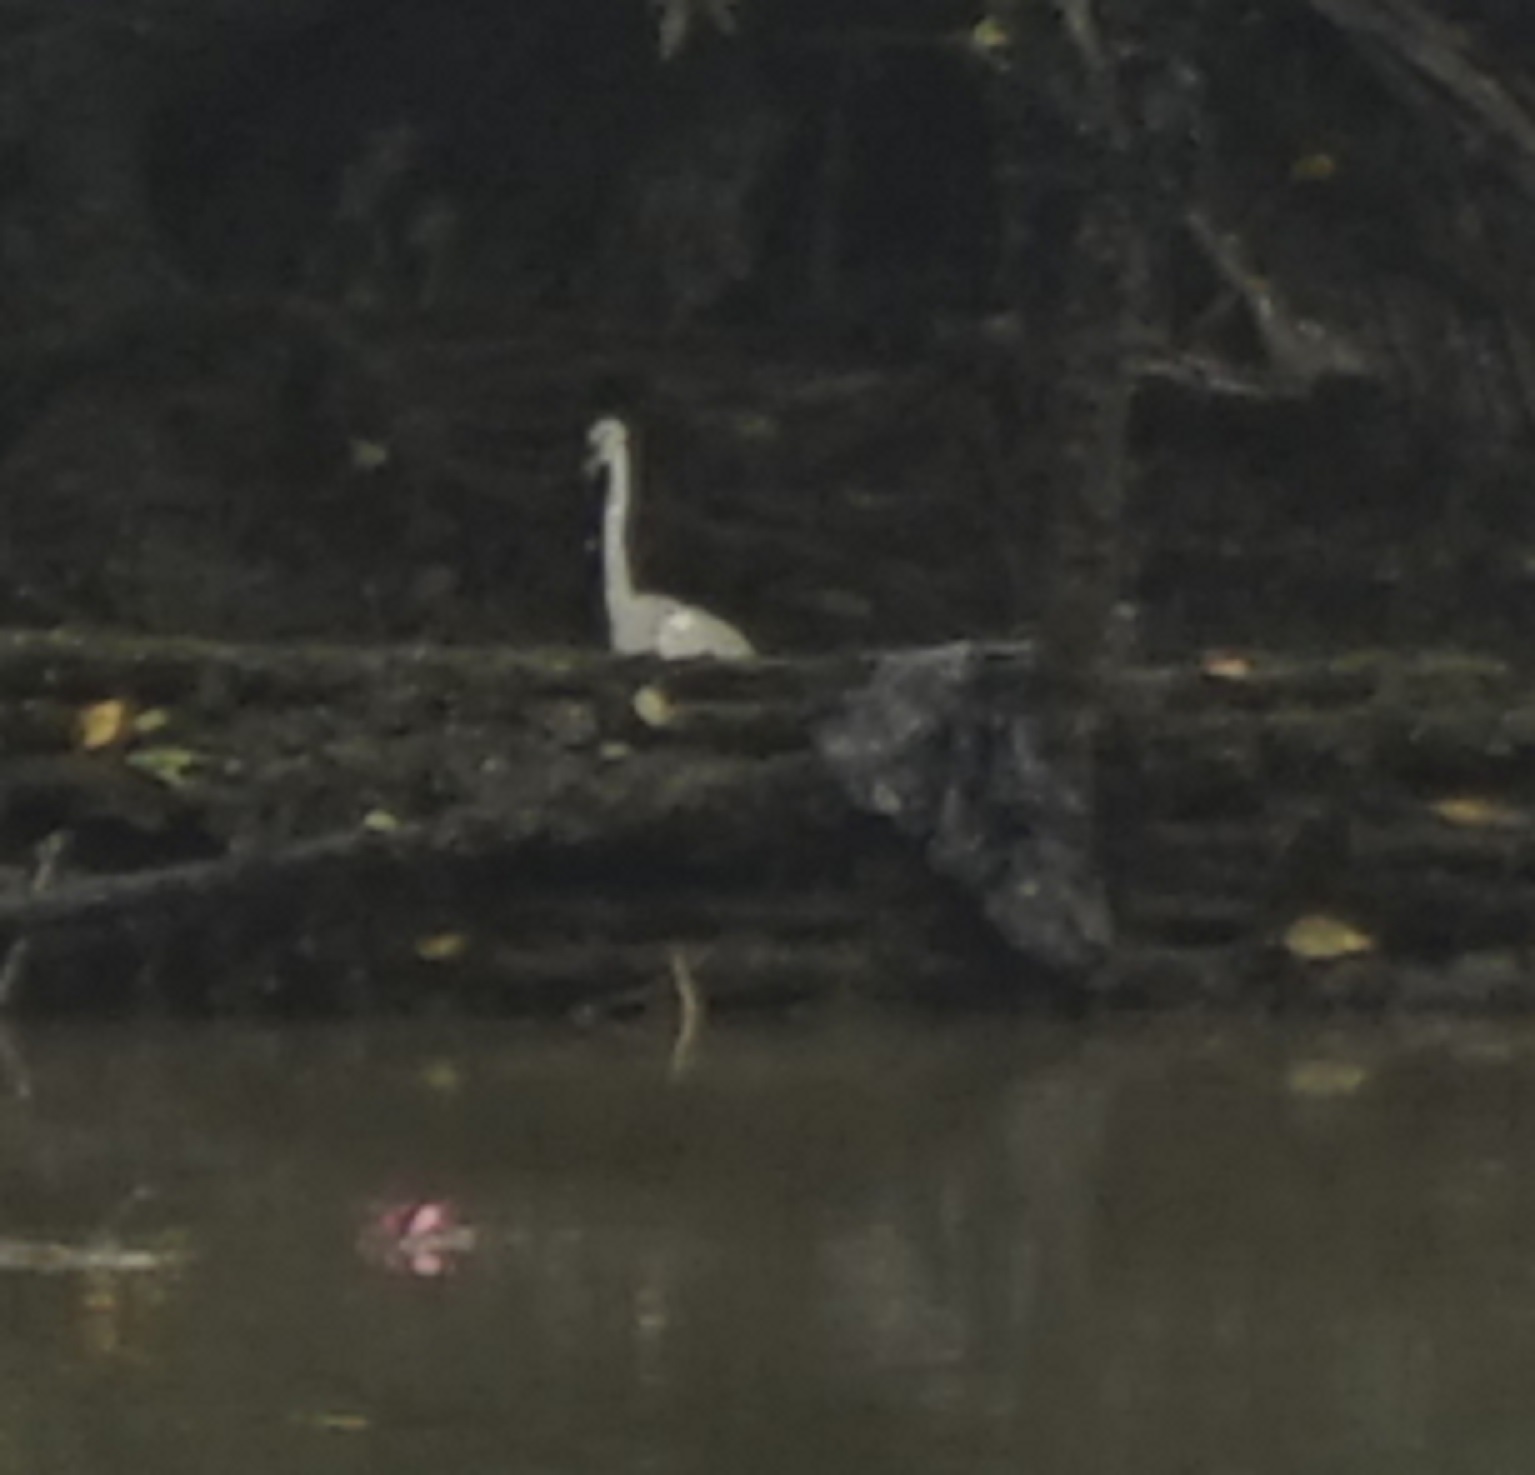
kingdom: Animalia
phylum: Chordata
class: Aves
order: Pelecaniformes
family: Ardeidae
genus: Ardea
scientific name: Ardea
